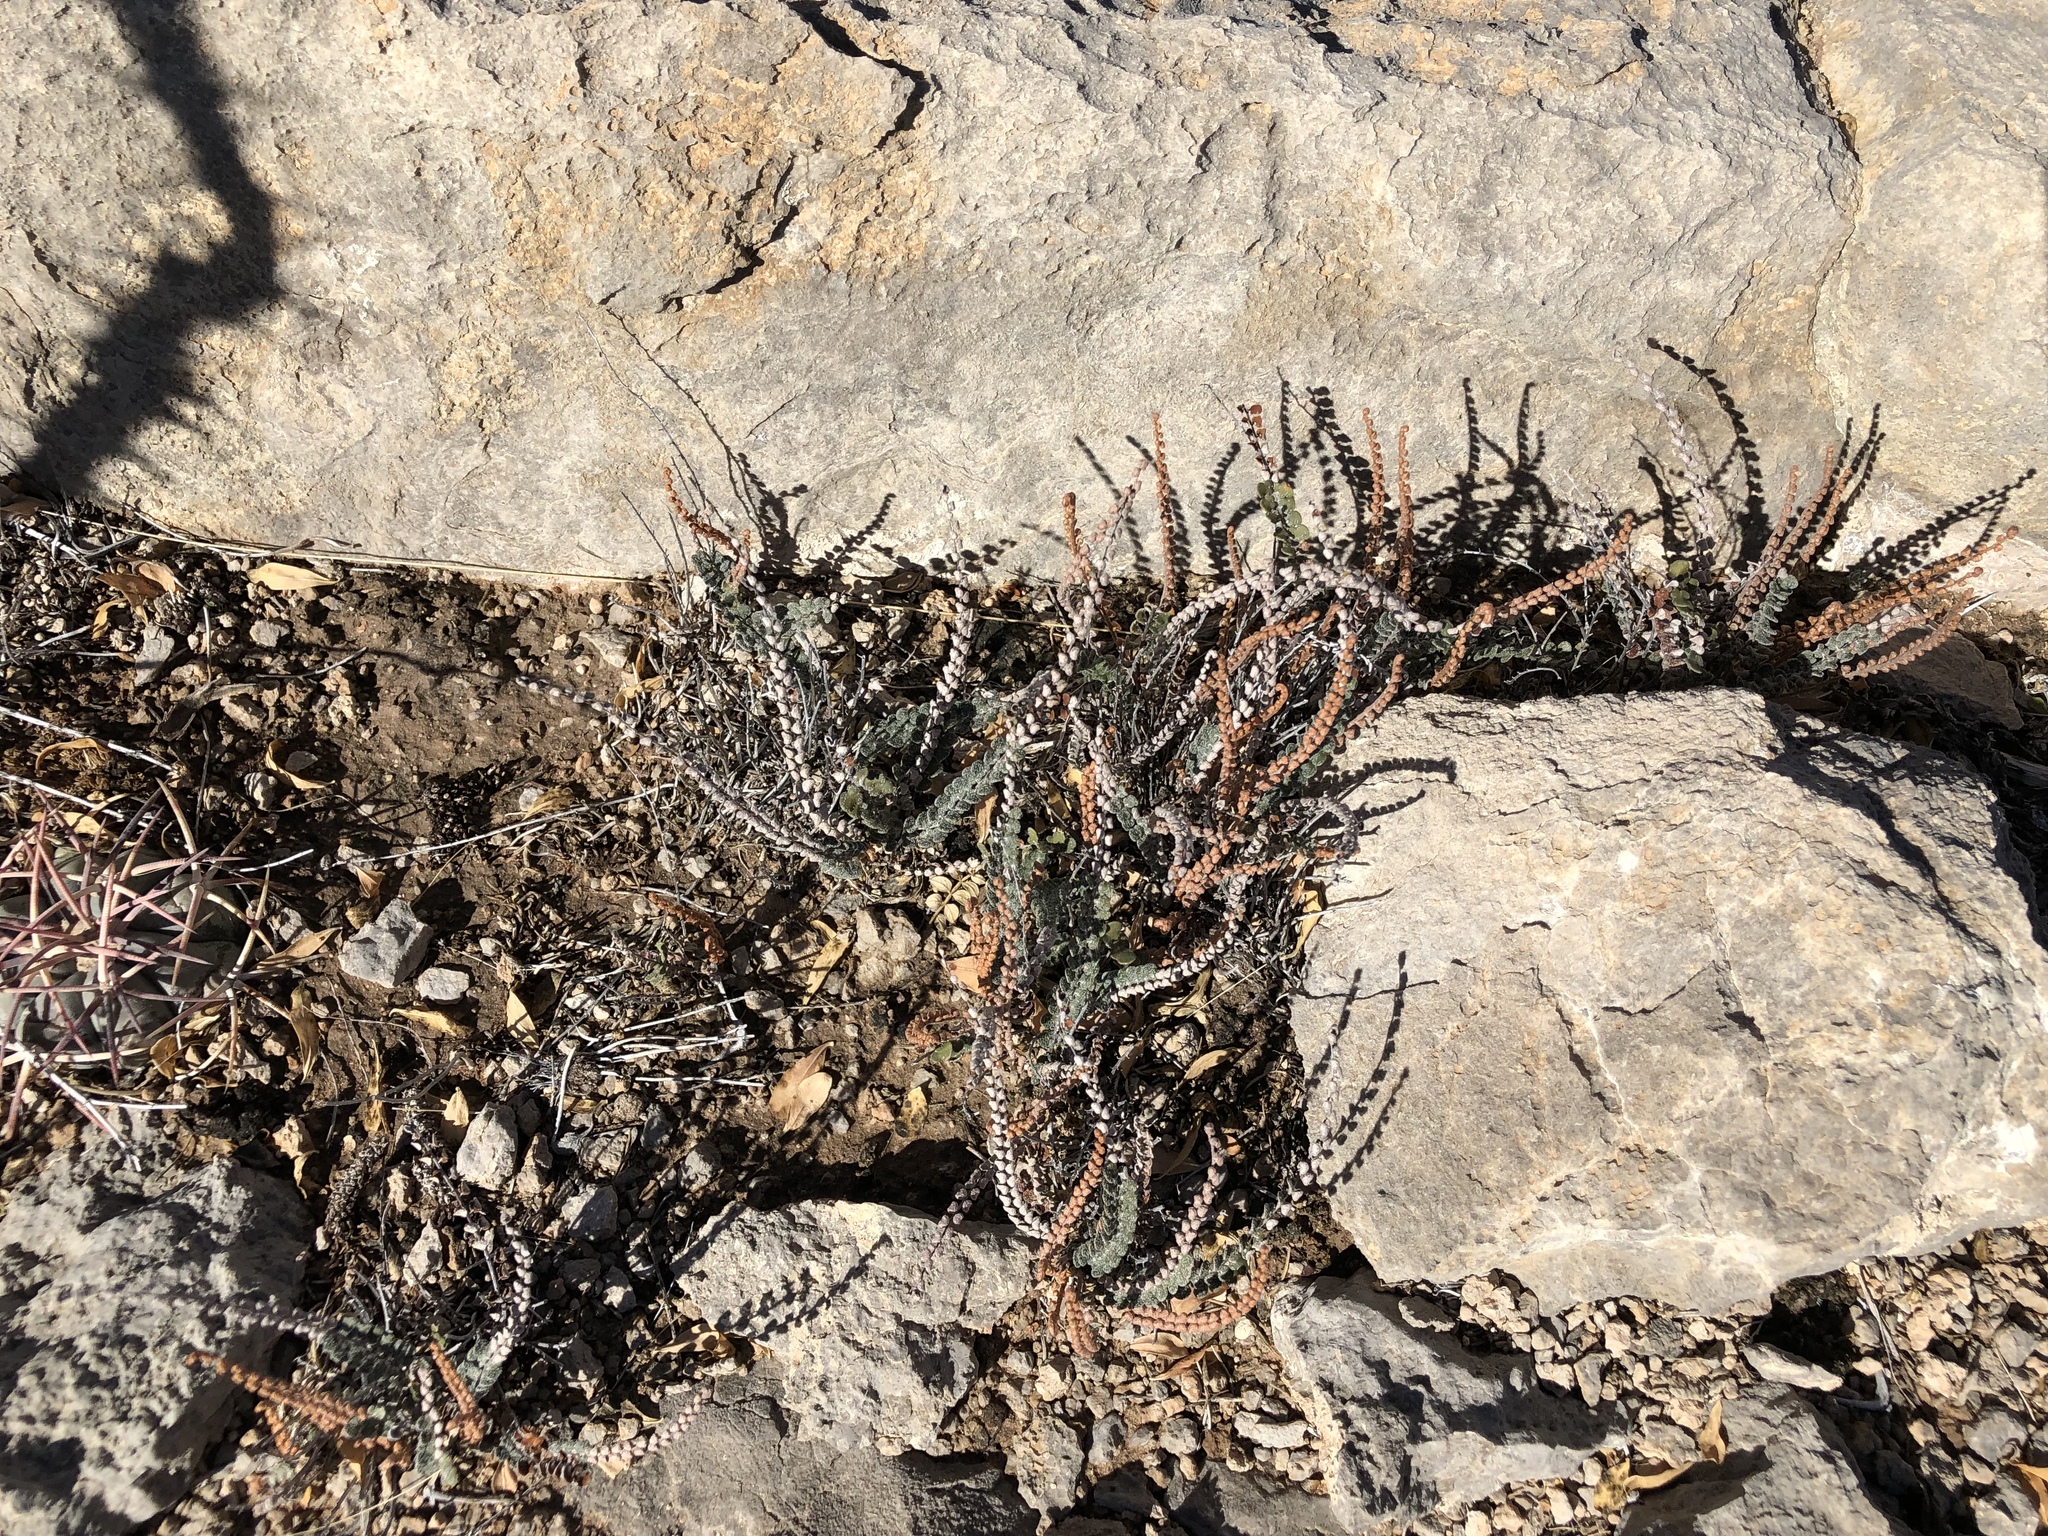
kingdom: Plantae
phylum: Tracheophyta
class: Polypodiopsida
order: Polypodiales
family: Pteridaceae
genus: Astrolepis
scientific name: Astrolepis cochisensis
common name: Scaly cloak fern
